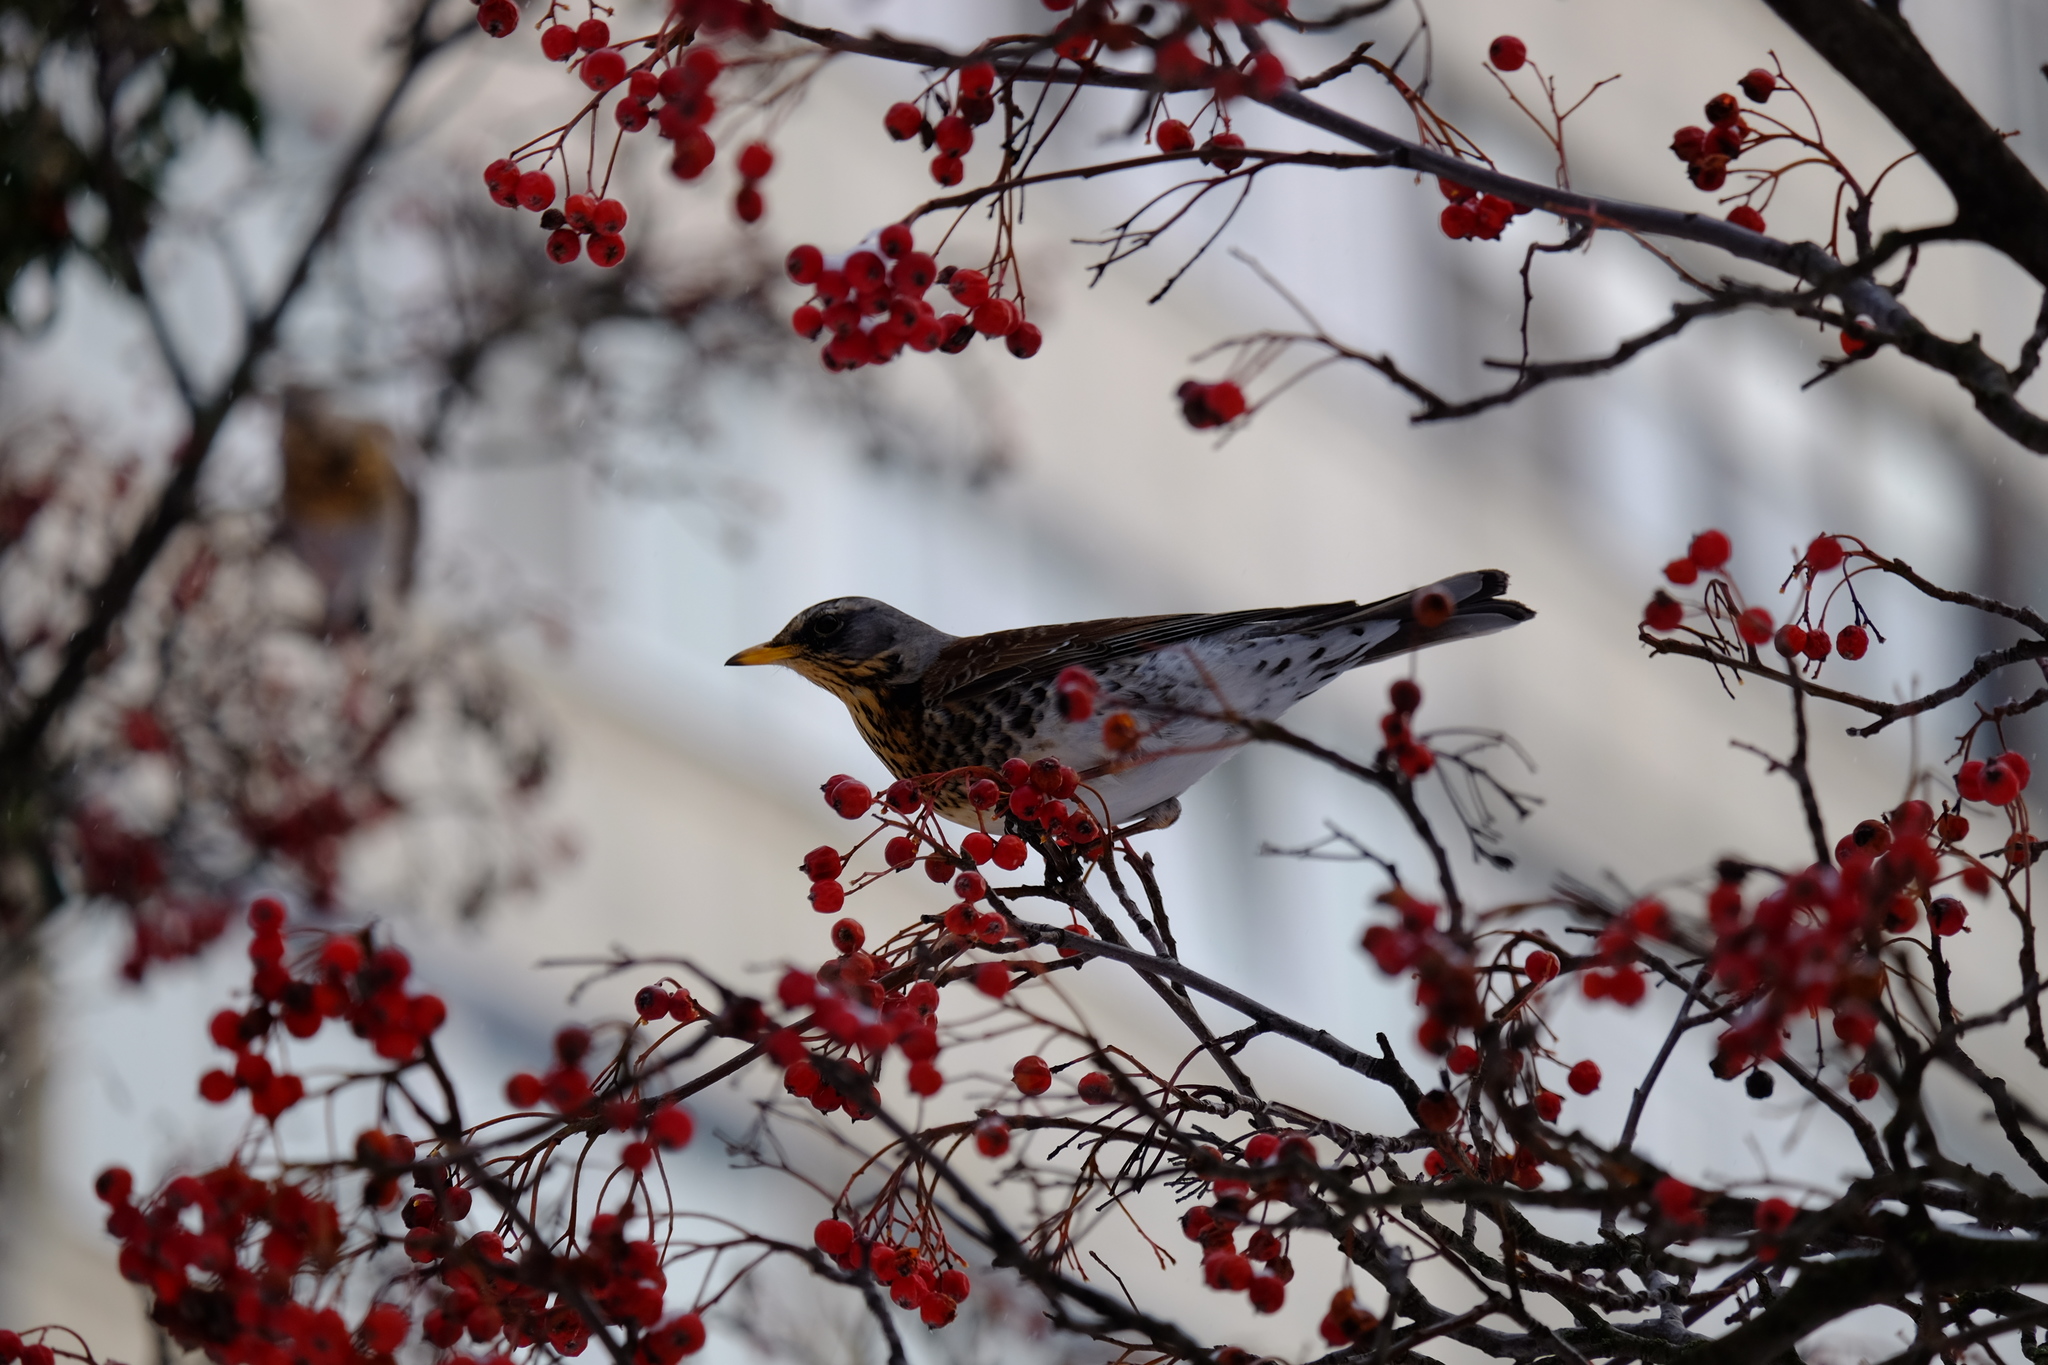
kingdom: Animalia
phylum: Chordata
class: Aves
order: Passeriformes
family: Turdidae
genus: Turdus
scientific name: Turdus pilaris
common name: Fieldfare
